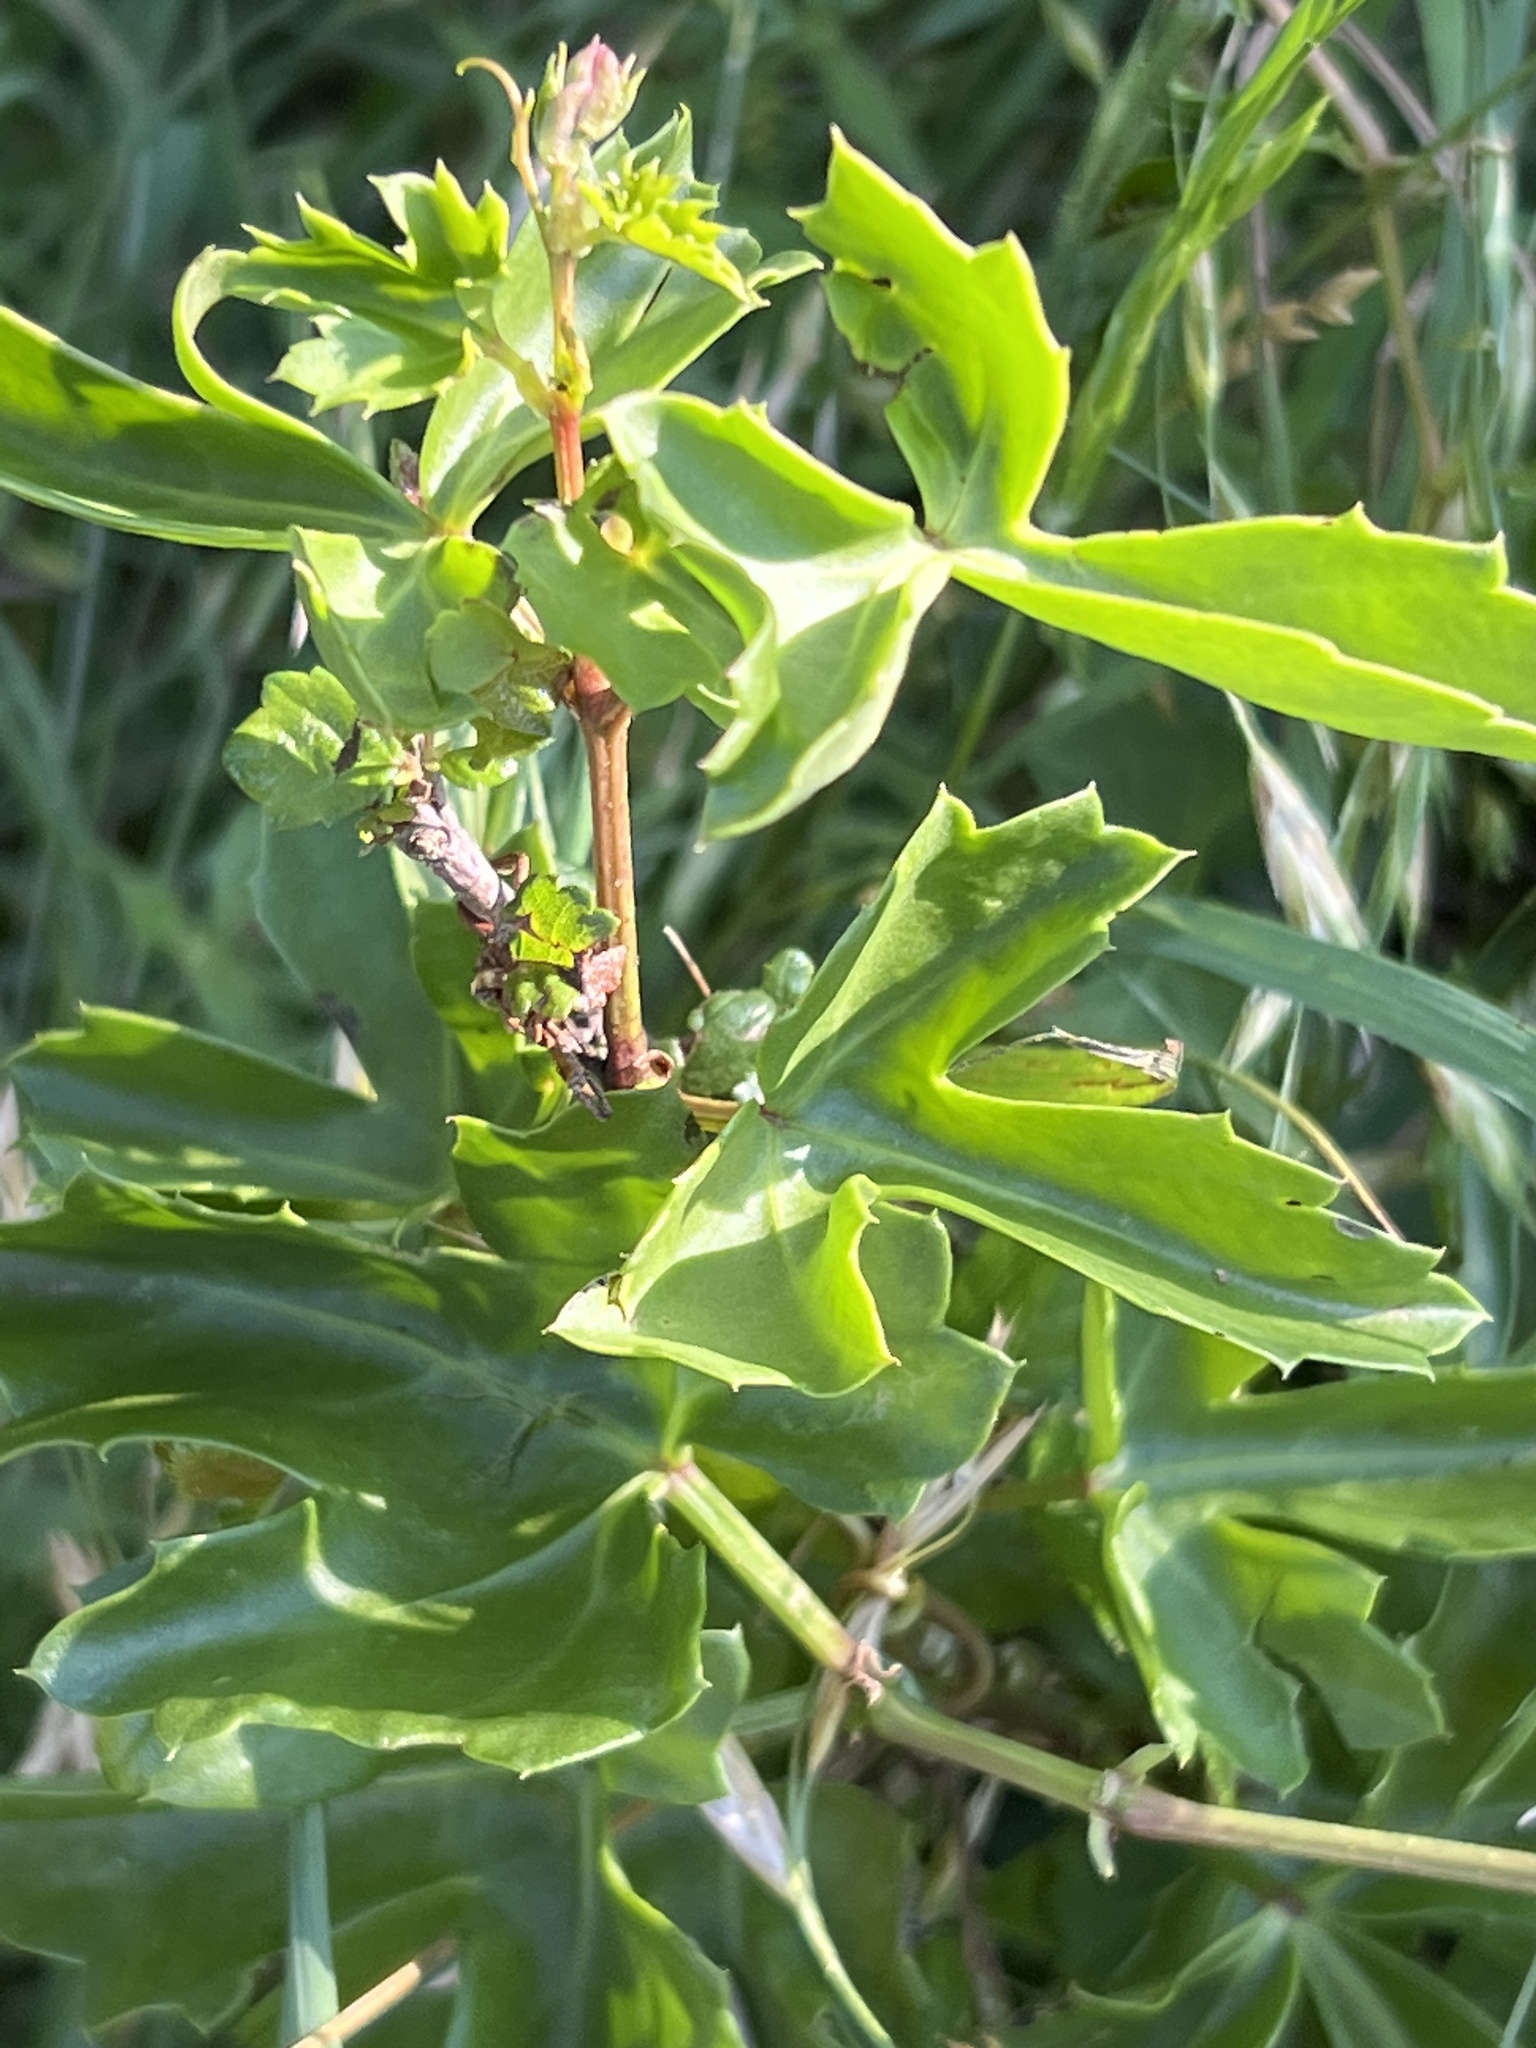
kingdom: Plantae
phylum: Tracheophyta
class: Magnoliopsida
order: Vitales
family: Vitaceae
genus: Cissus
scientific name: Cissus trifoliata
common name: Vine-sorrel
